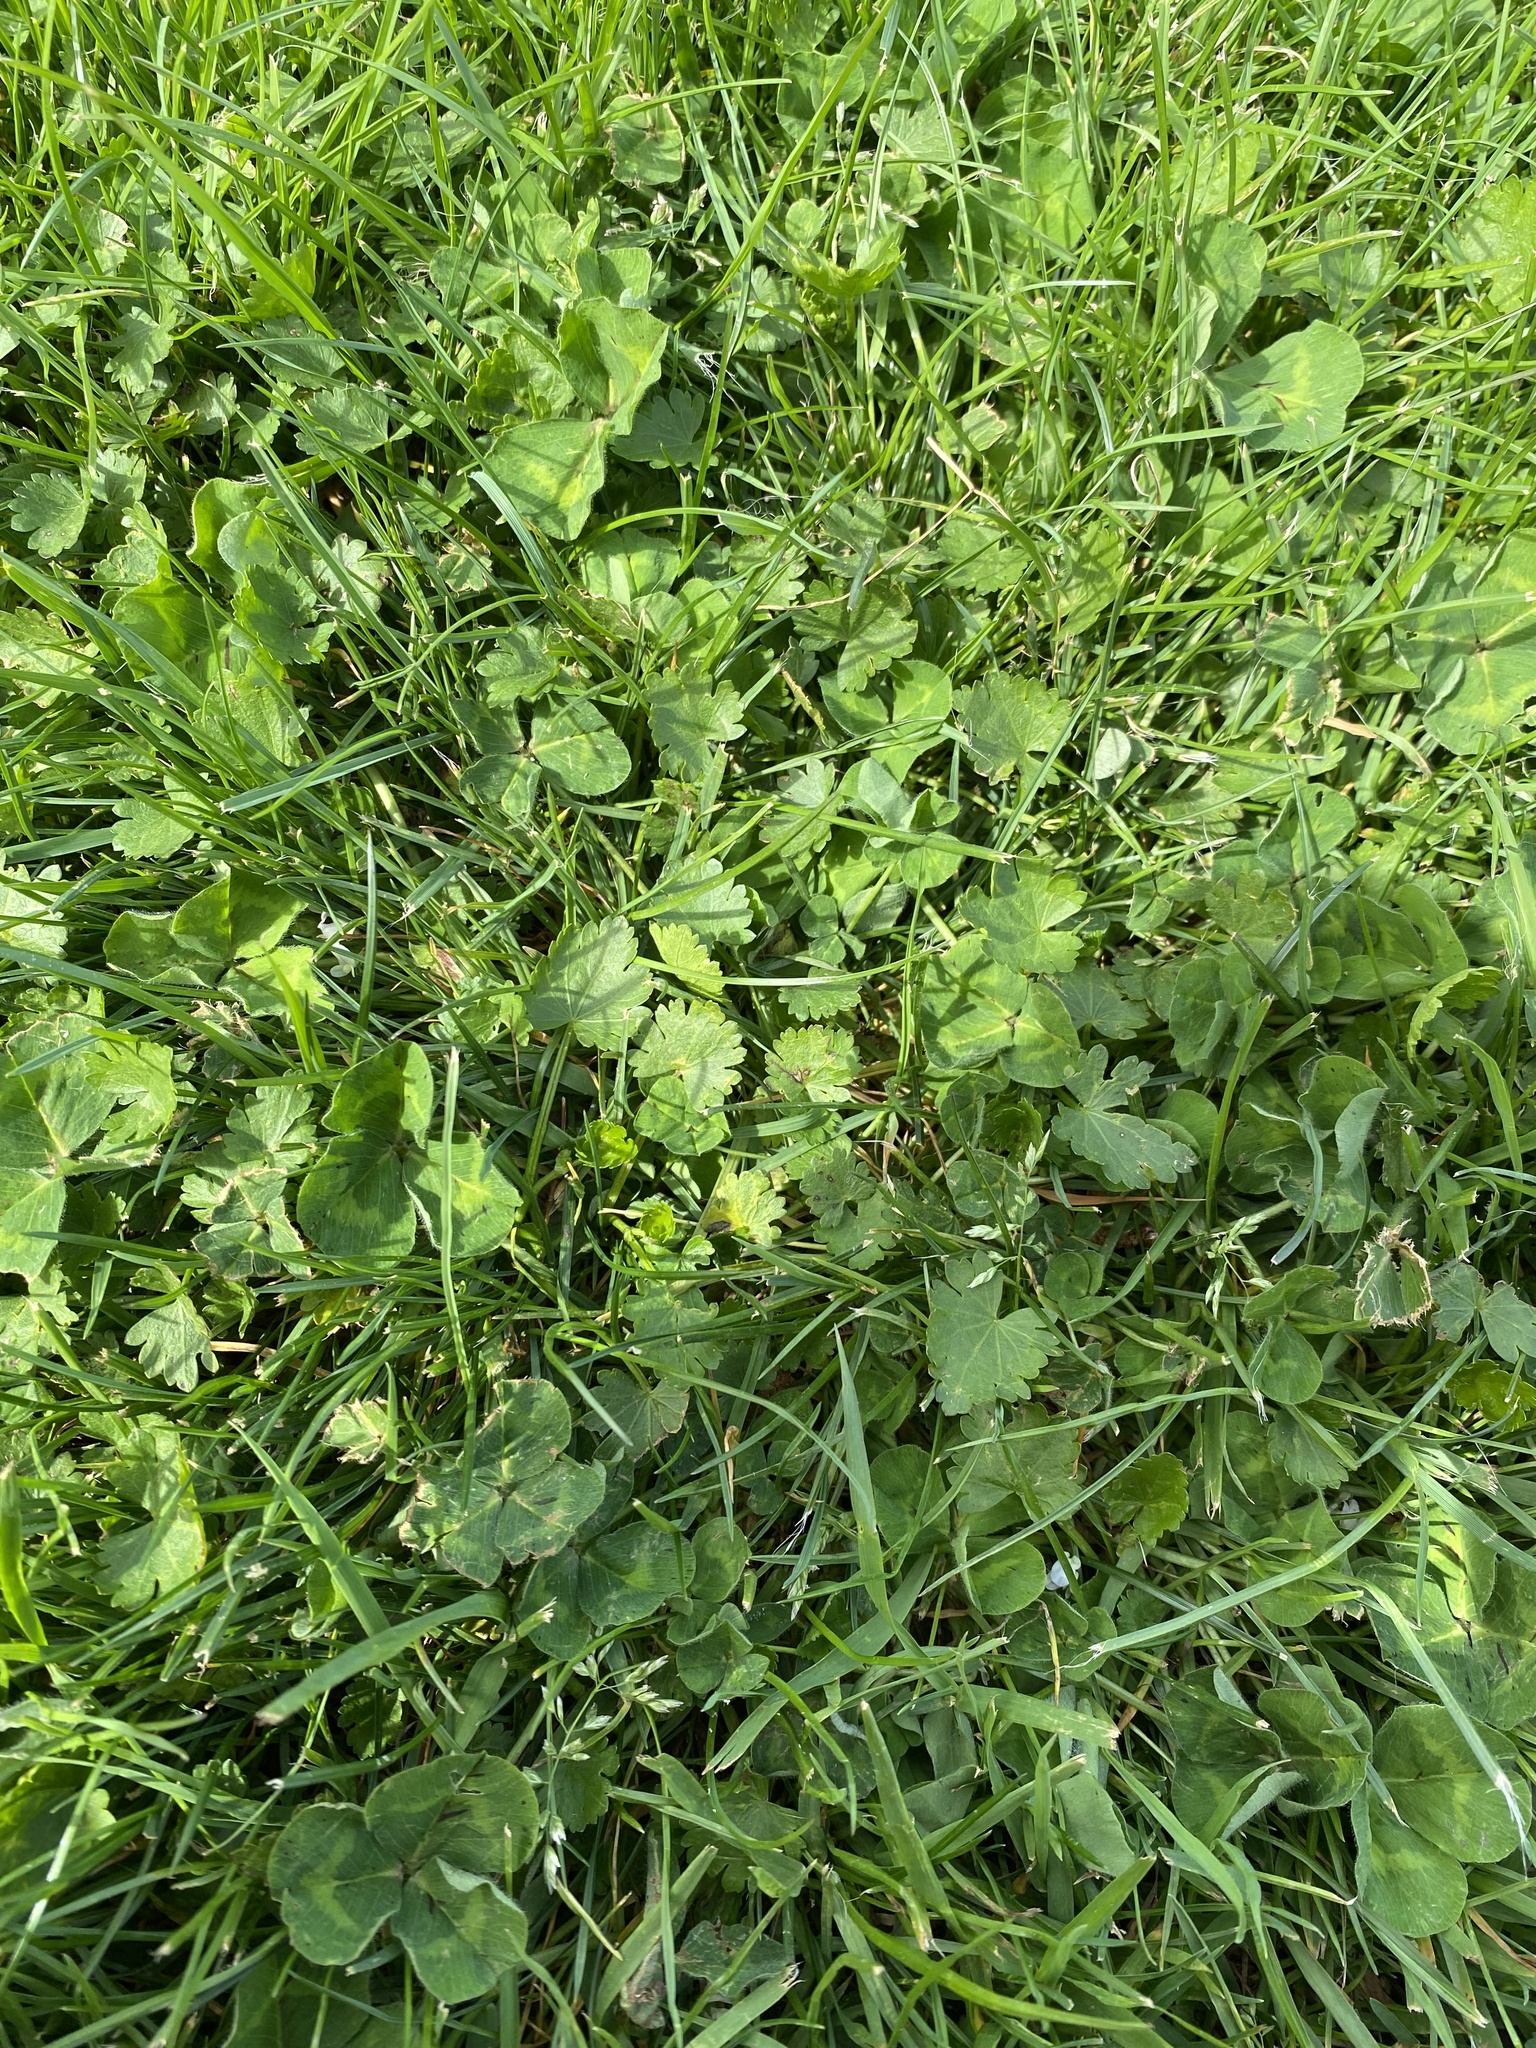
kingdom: Plantae
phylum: Tracheophyta
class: Magnoliopsida
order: Malvales
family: Malvaceae
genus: Modiola
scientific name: Modiola caroliniana
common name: Carolina bristlemallow
